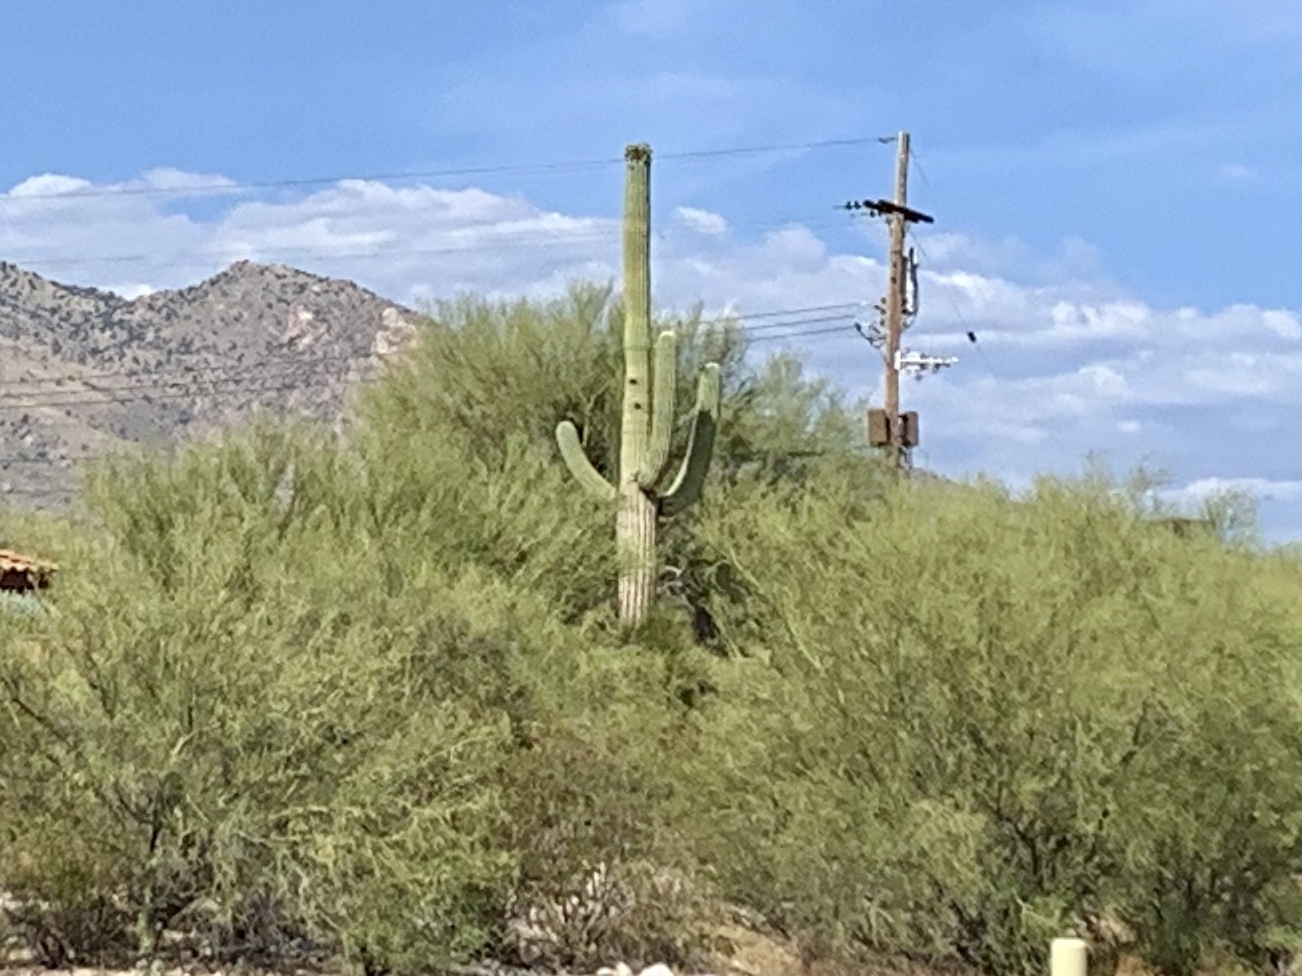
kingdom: Plantae
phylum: Tracheophyta
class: Magnoliopsida
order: Caryophyllales
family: Cactaceae
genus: Carnegiea
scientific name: Carnegiea gigantea
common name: Saguaro
